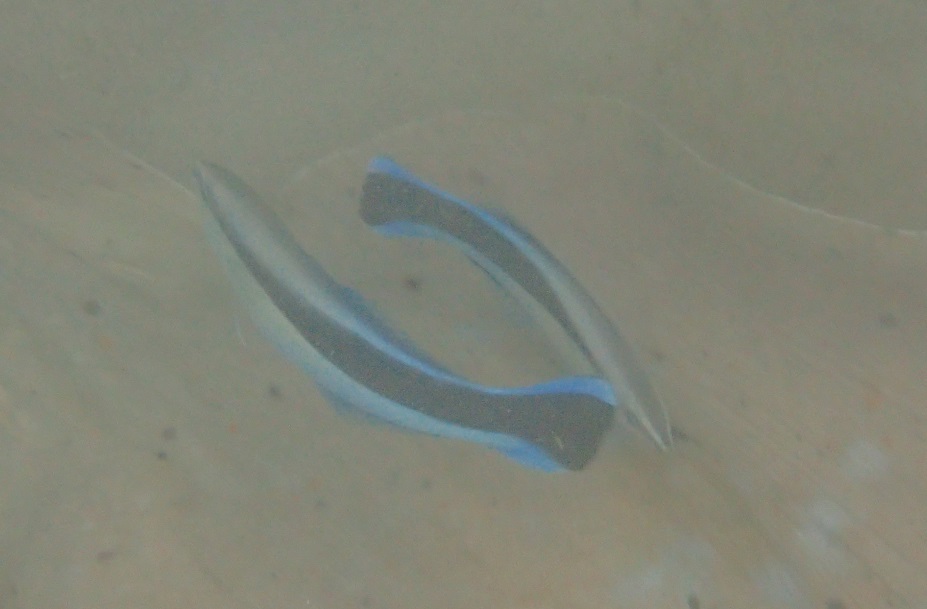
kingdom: Animalia
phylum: Chordata
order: Perciformes
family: Labridae
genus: Labroides
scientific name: Labroides dimidiatus
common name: Blue diesel wrasse
